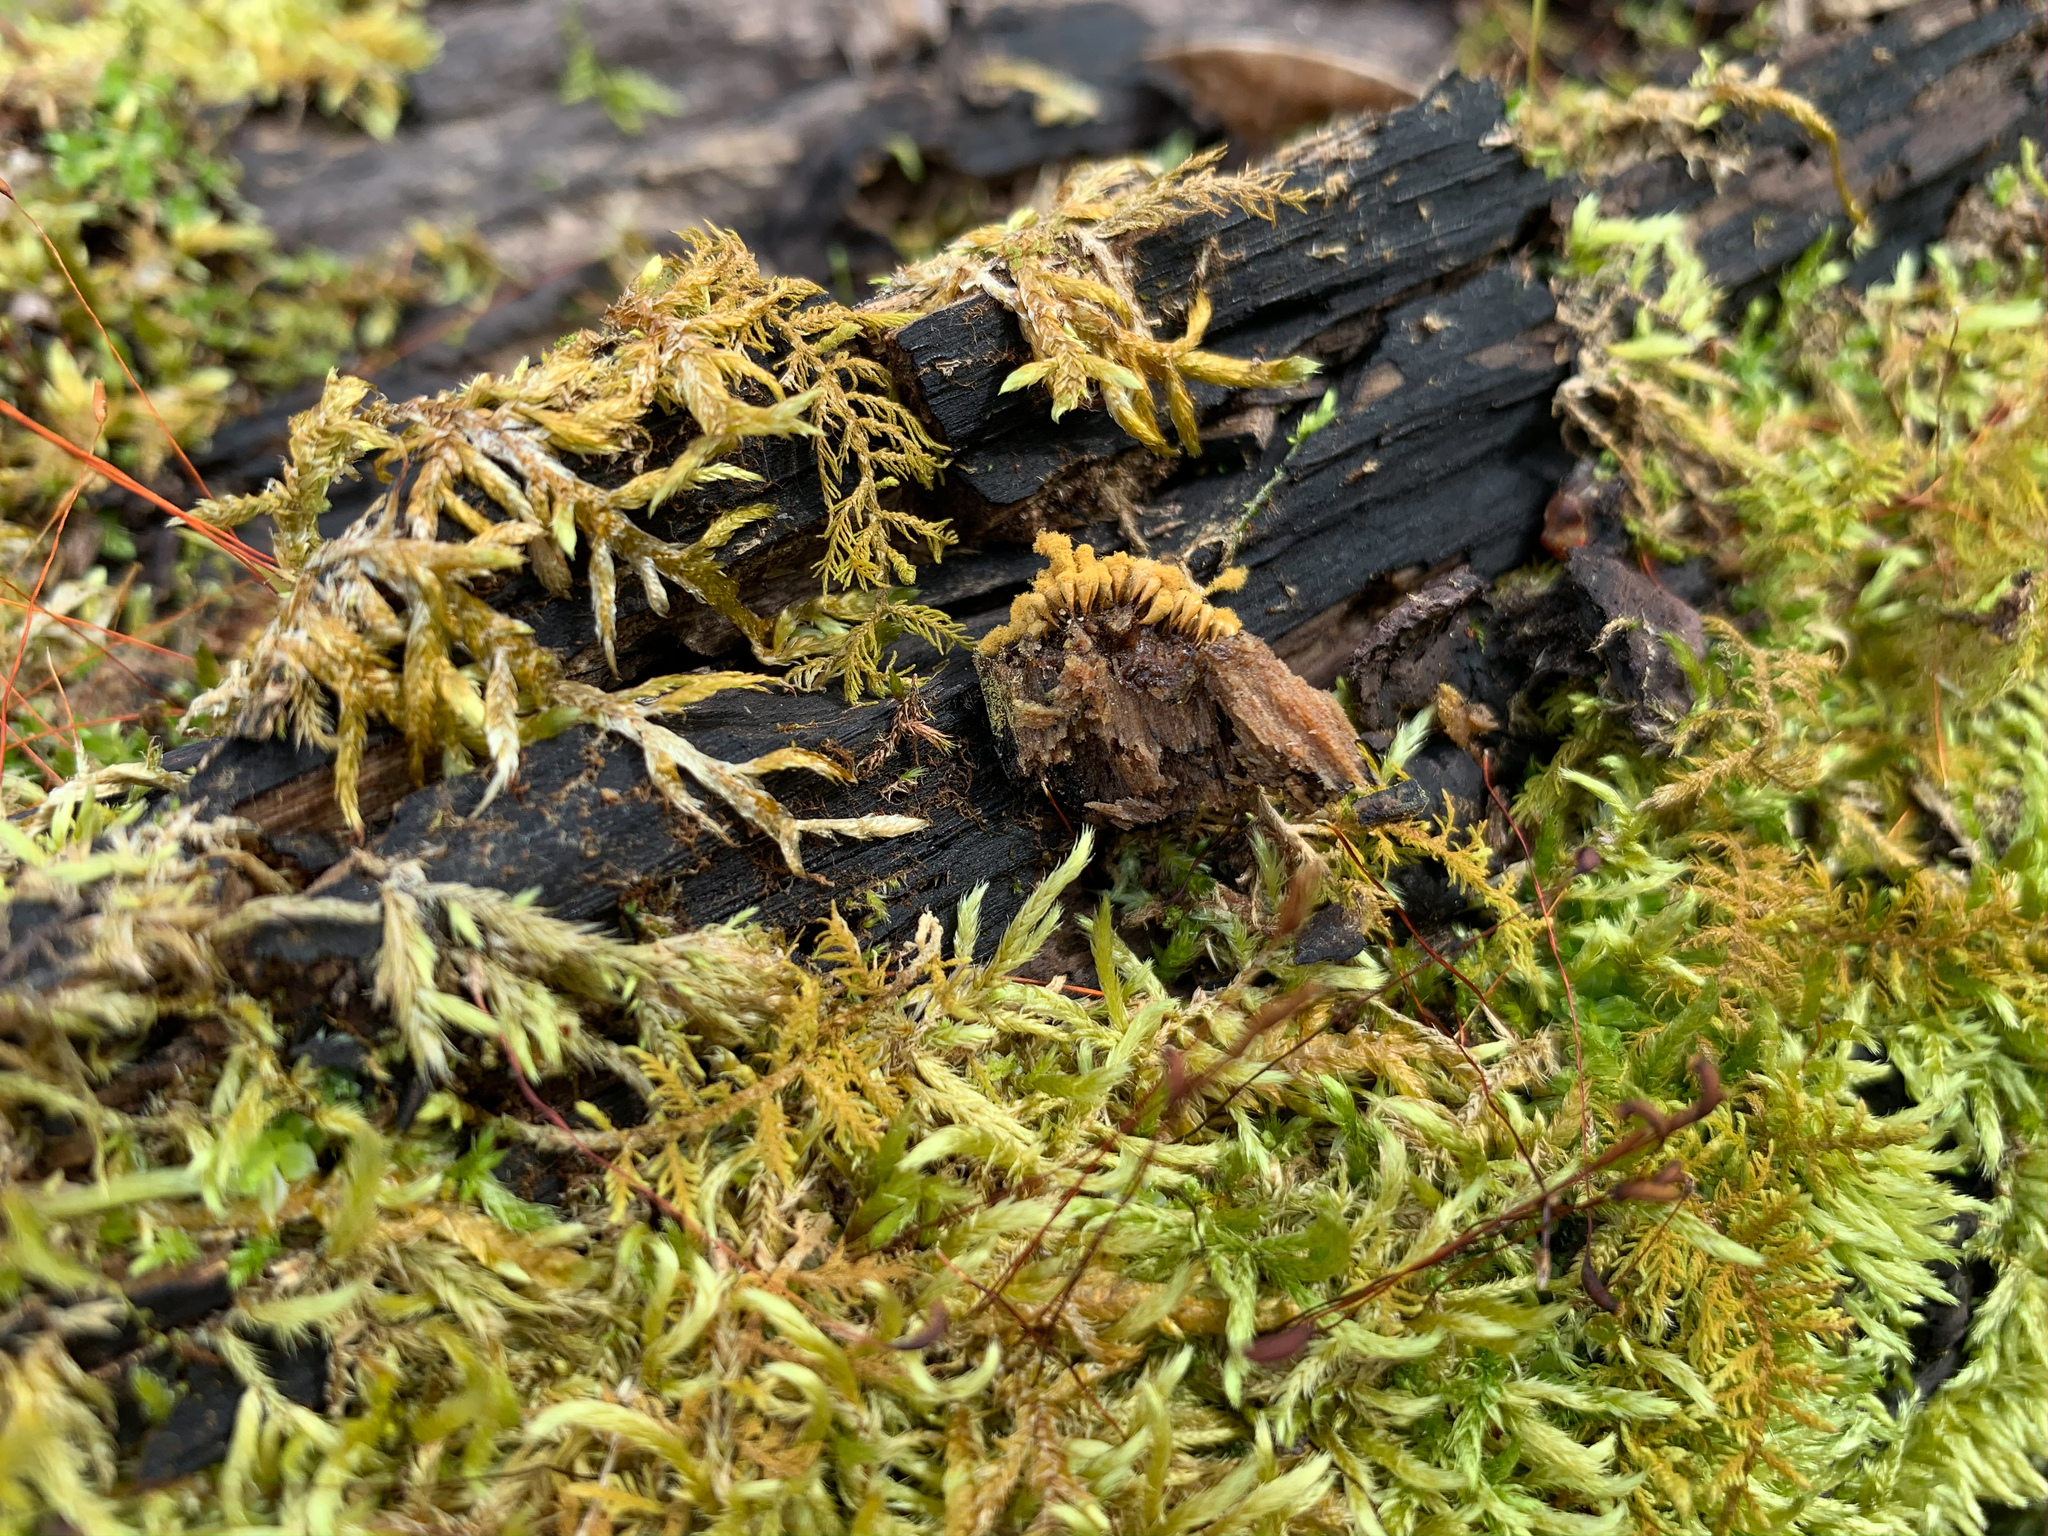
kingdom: Protozoa
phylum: Mycetozoa
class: Myxomycetes
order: Trichiales
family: Arcyriaceae
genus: Hemitrichia
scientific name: Hemitrichia calyculata
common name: Push pin slime mold
